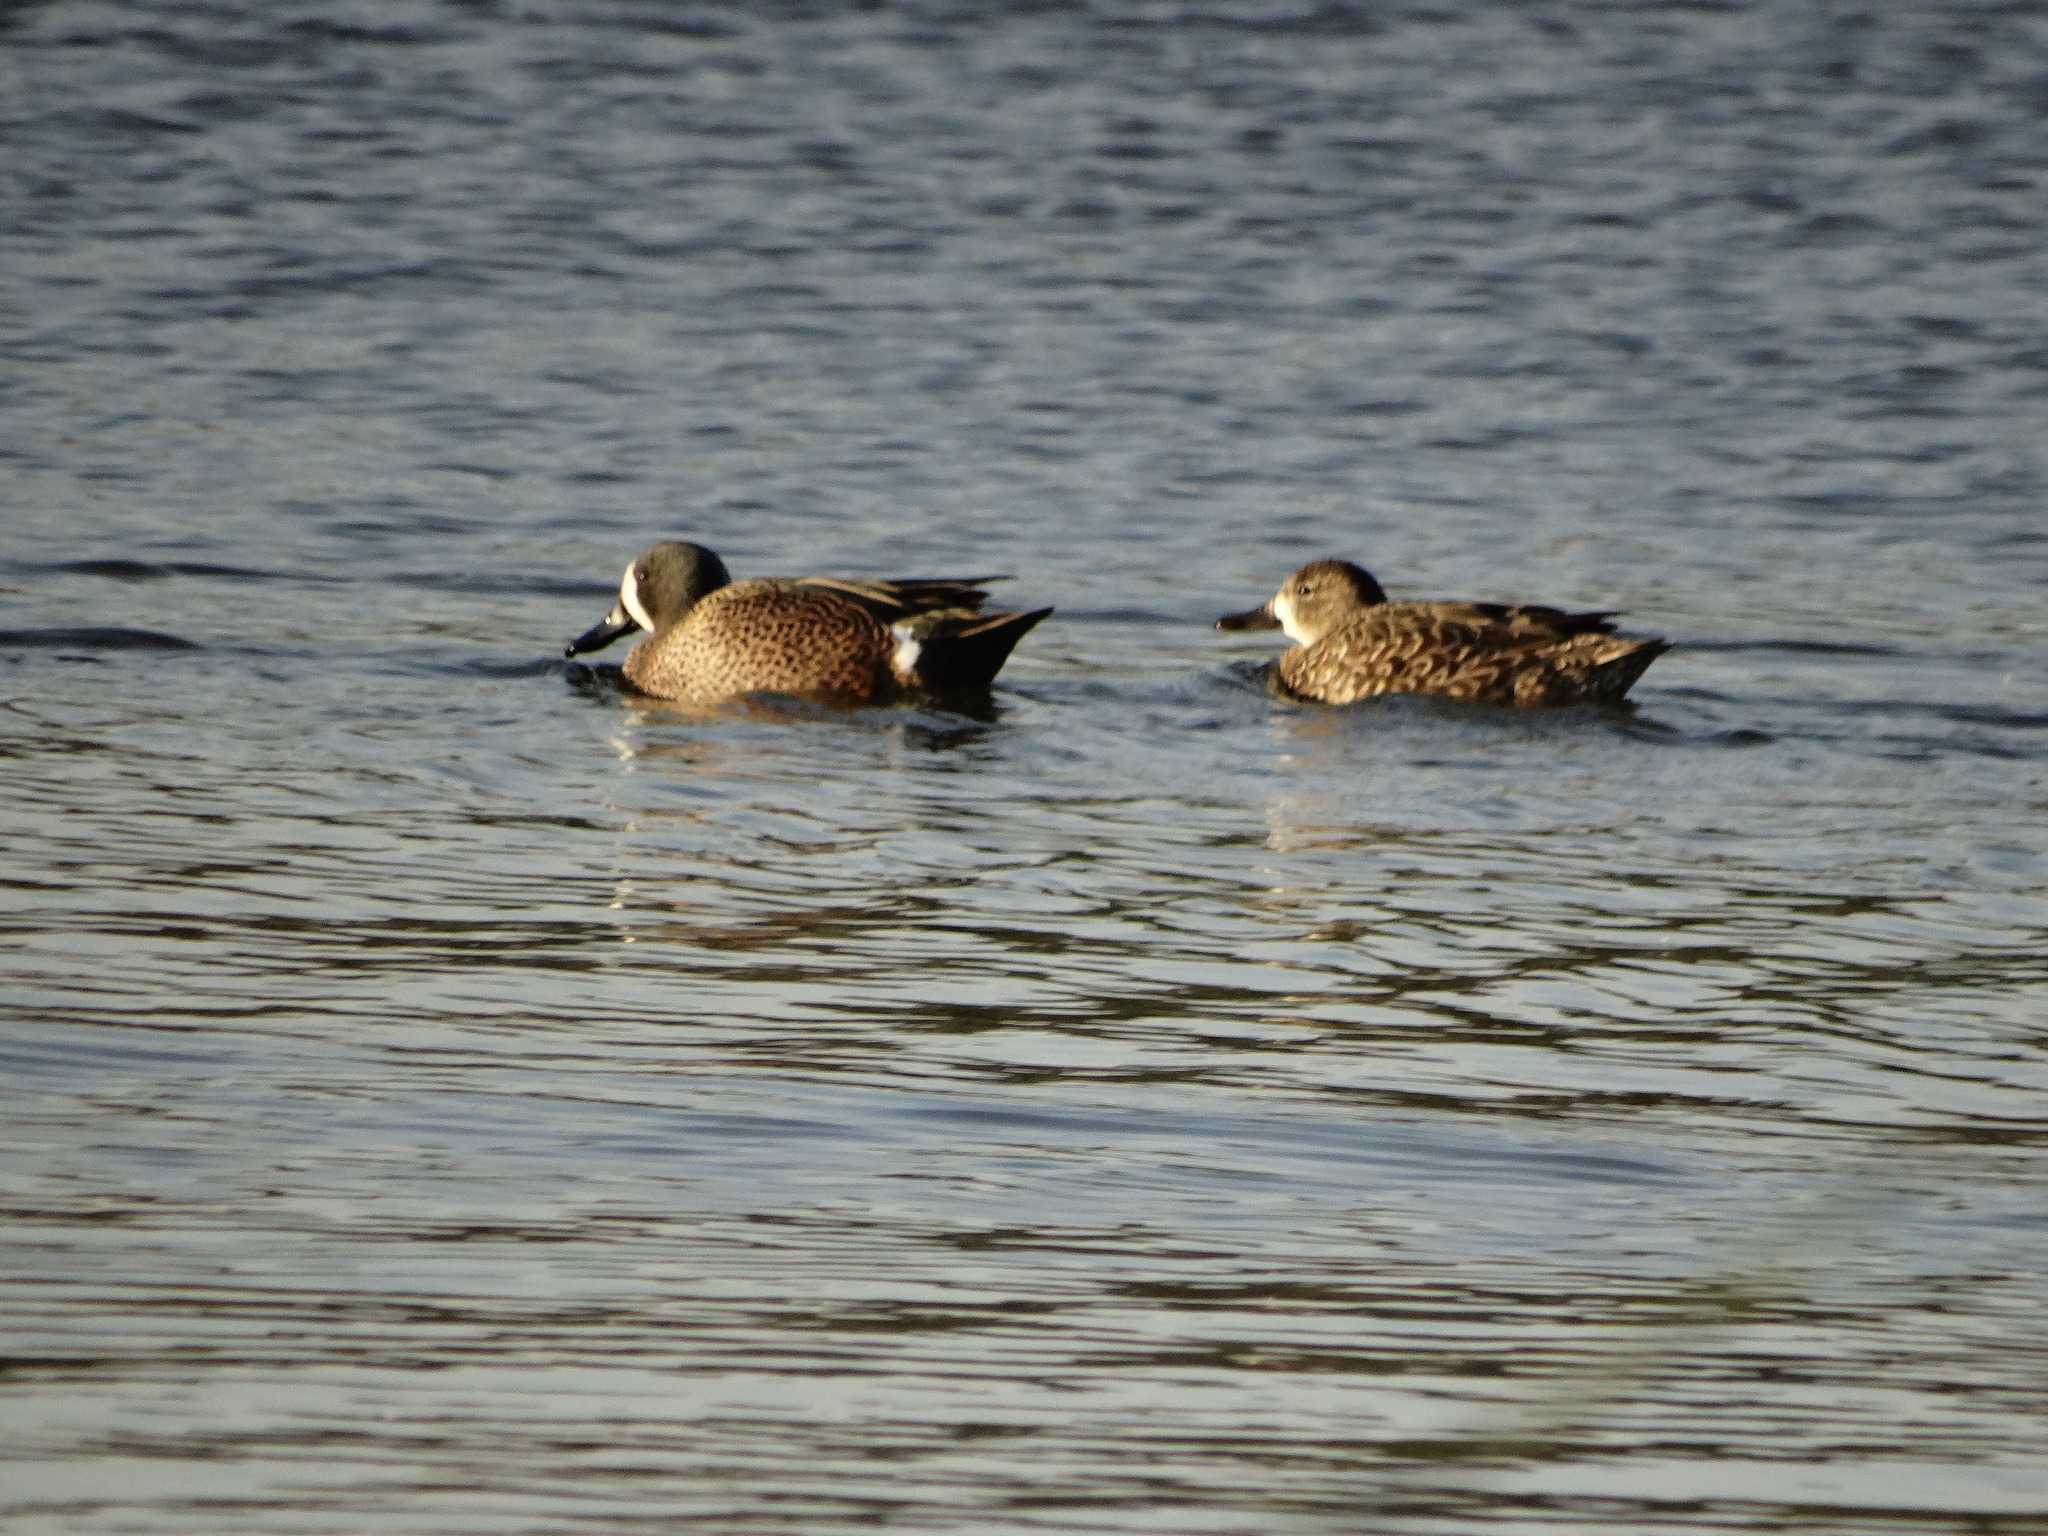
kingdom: Animalia
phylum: Chordata
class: Aves
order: Anseriformes
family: Anatidae
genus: Spatula
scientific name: Spatula discors
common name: Blue-winged teal
